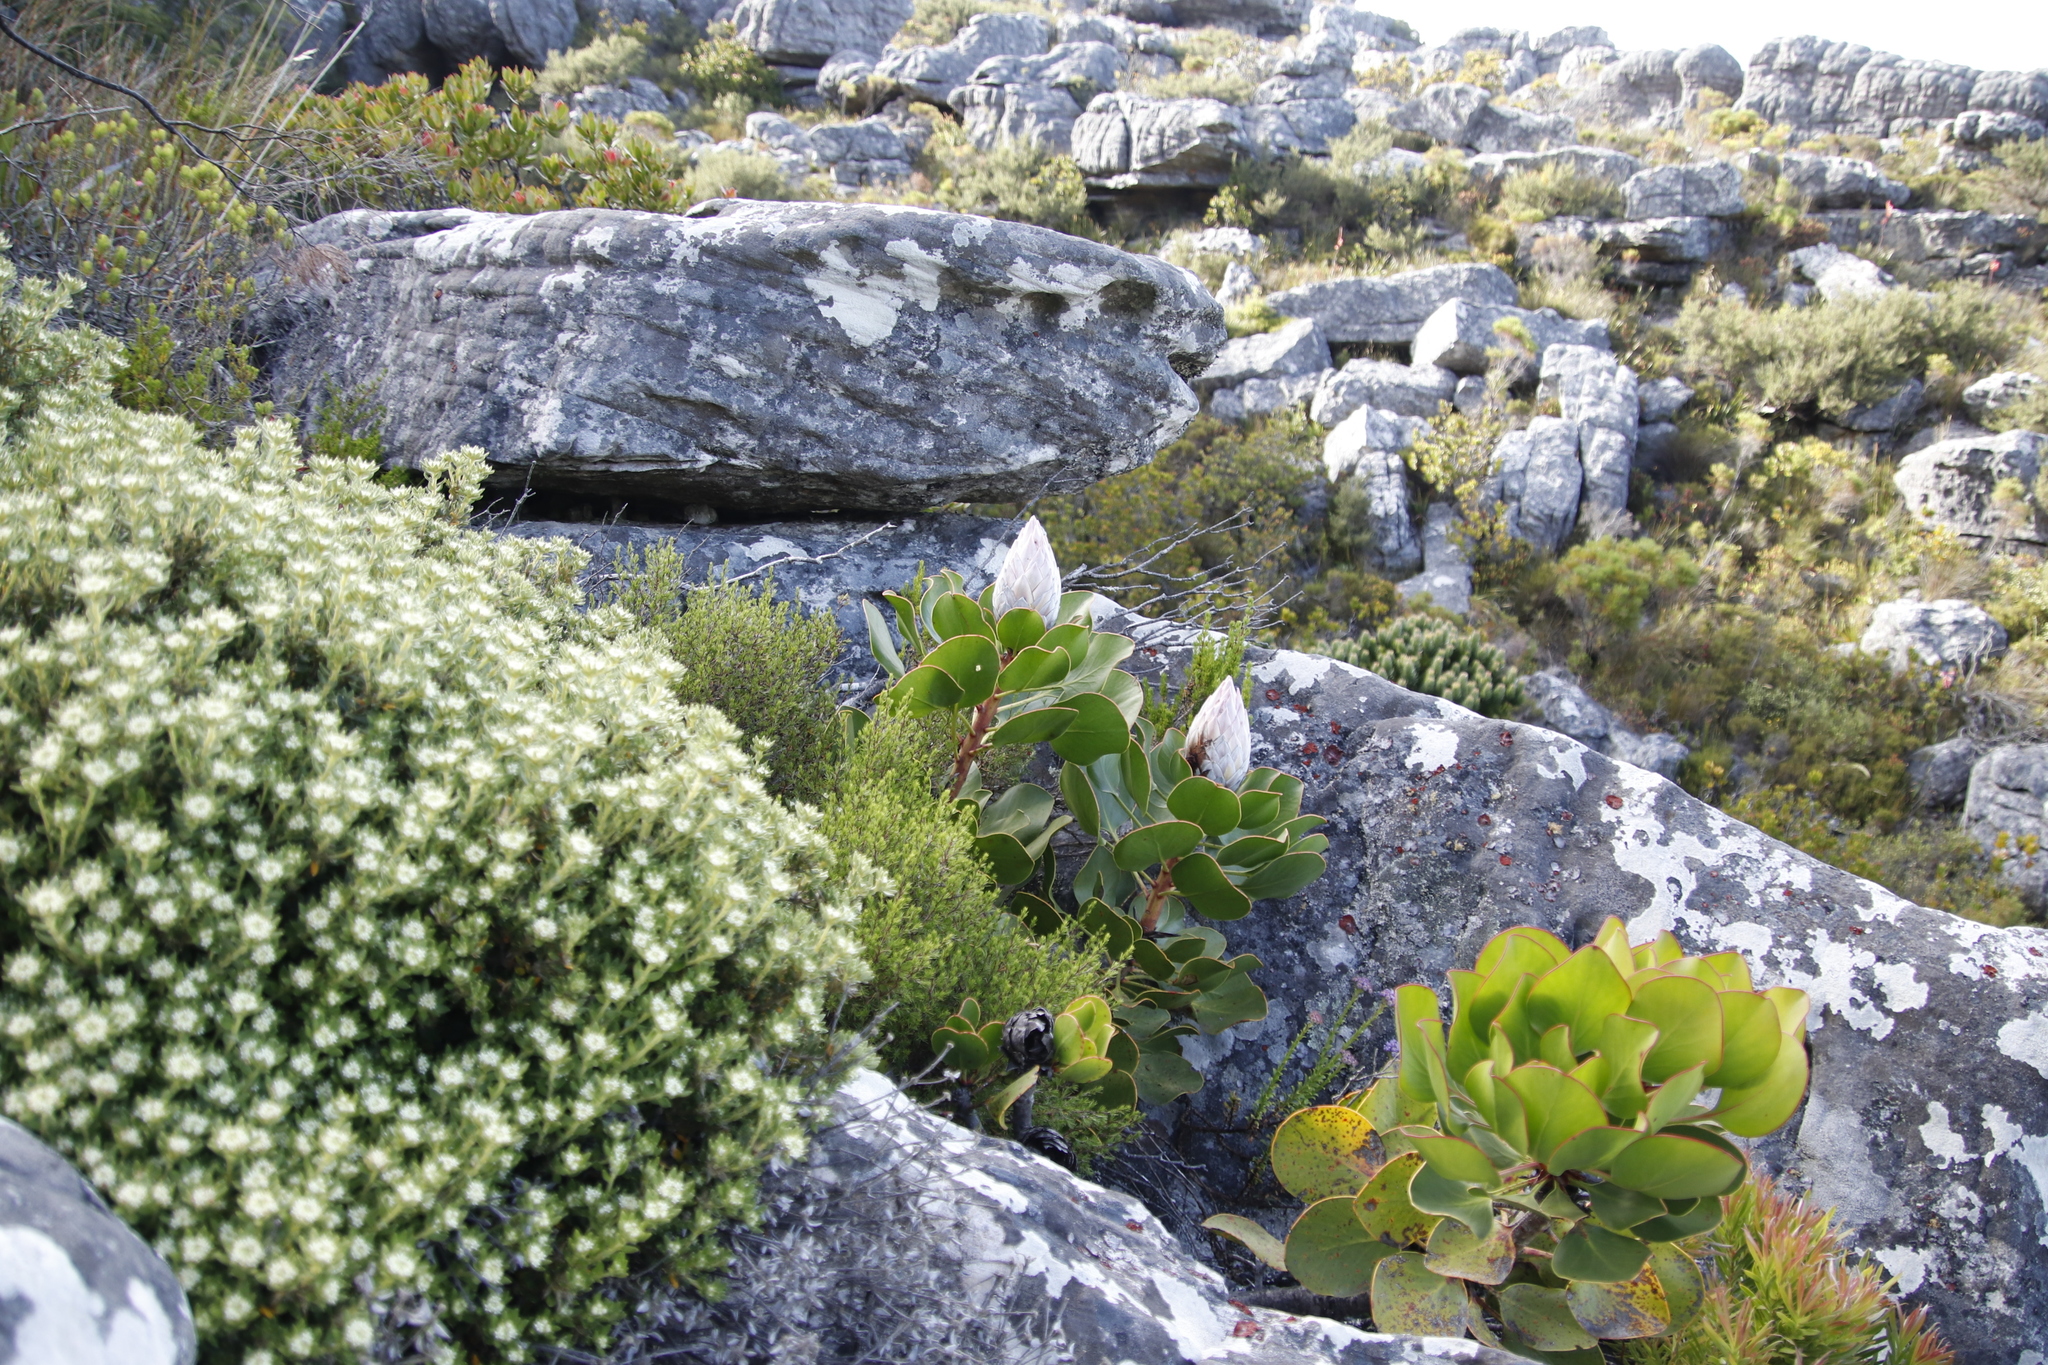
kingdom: Plantae
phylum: Tracheophyta
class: Magnoliopsida
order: Proteales
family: Proteaceae
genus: Protea
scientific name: Protea cynaroides
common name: King protea
